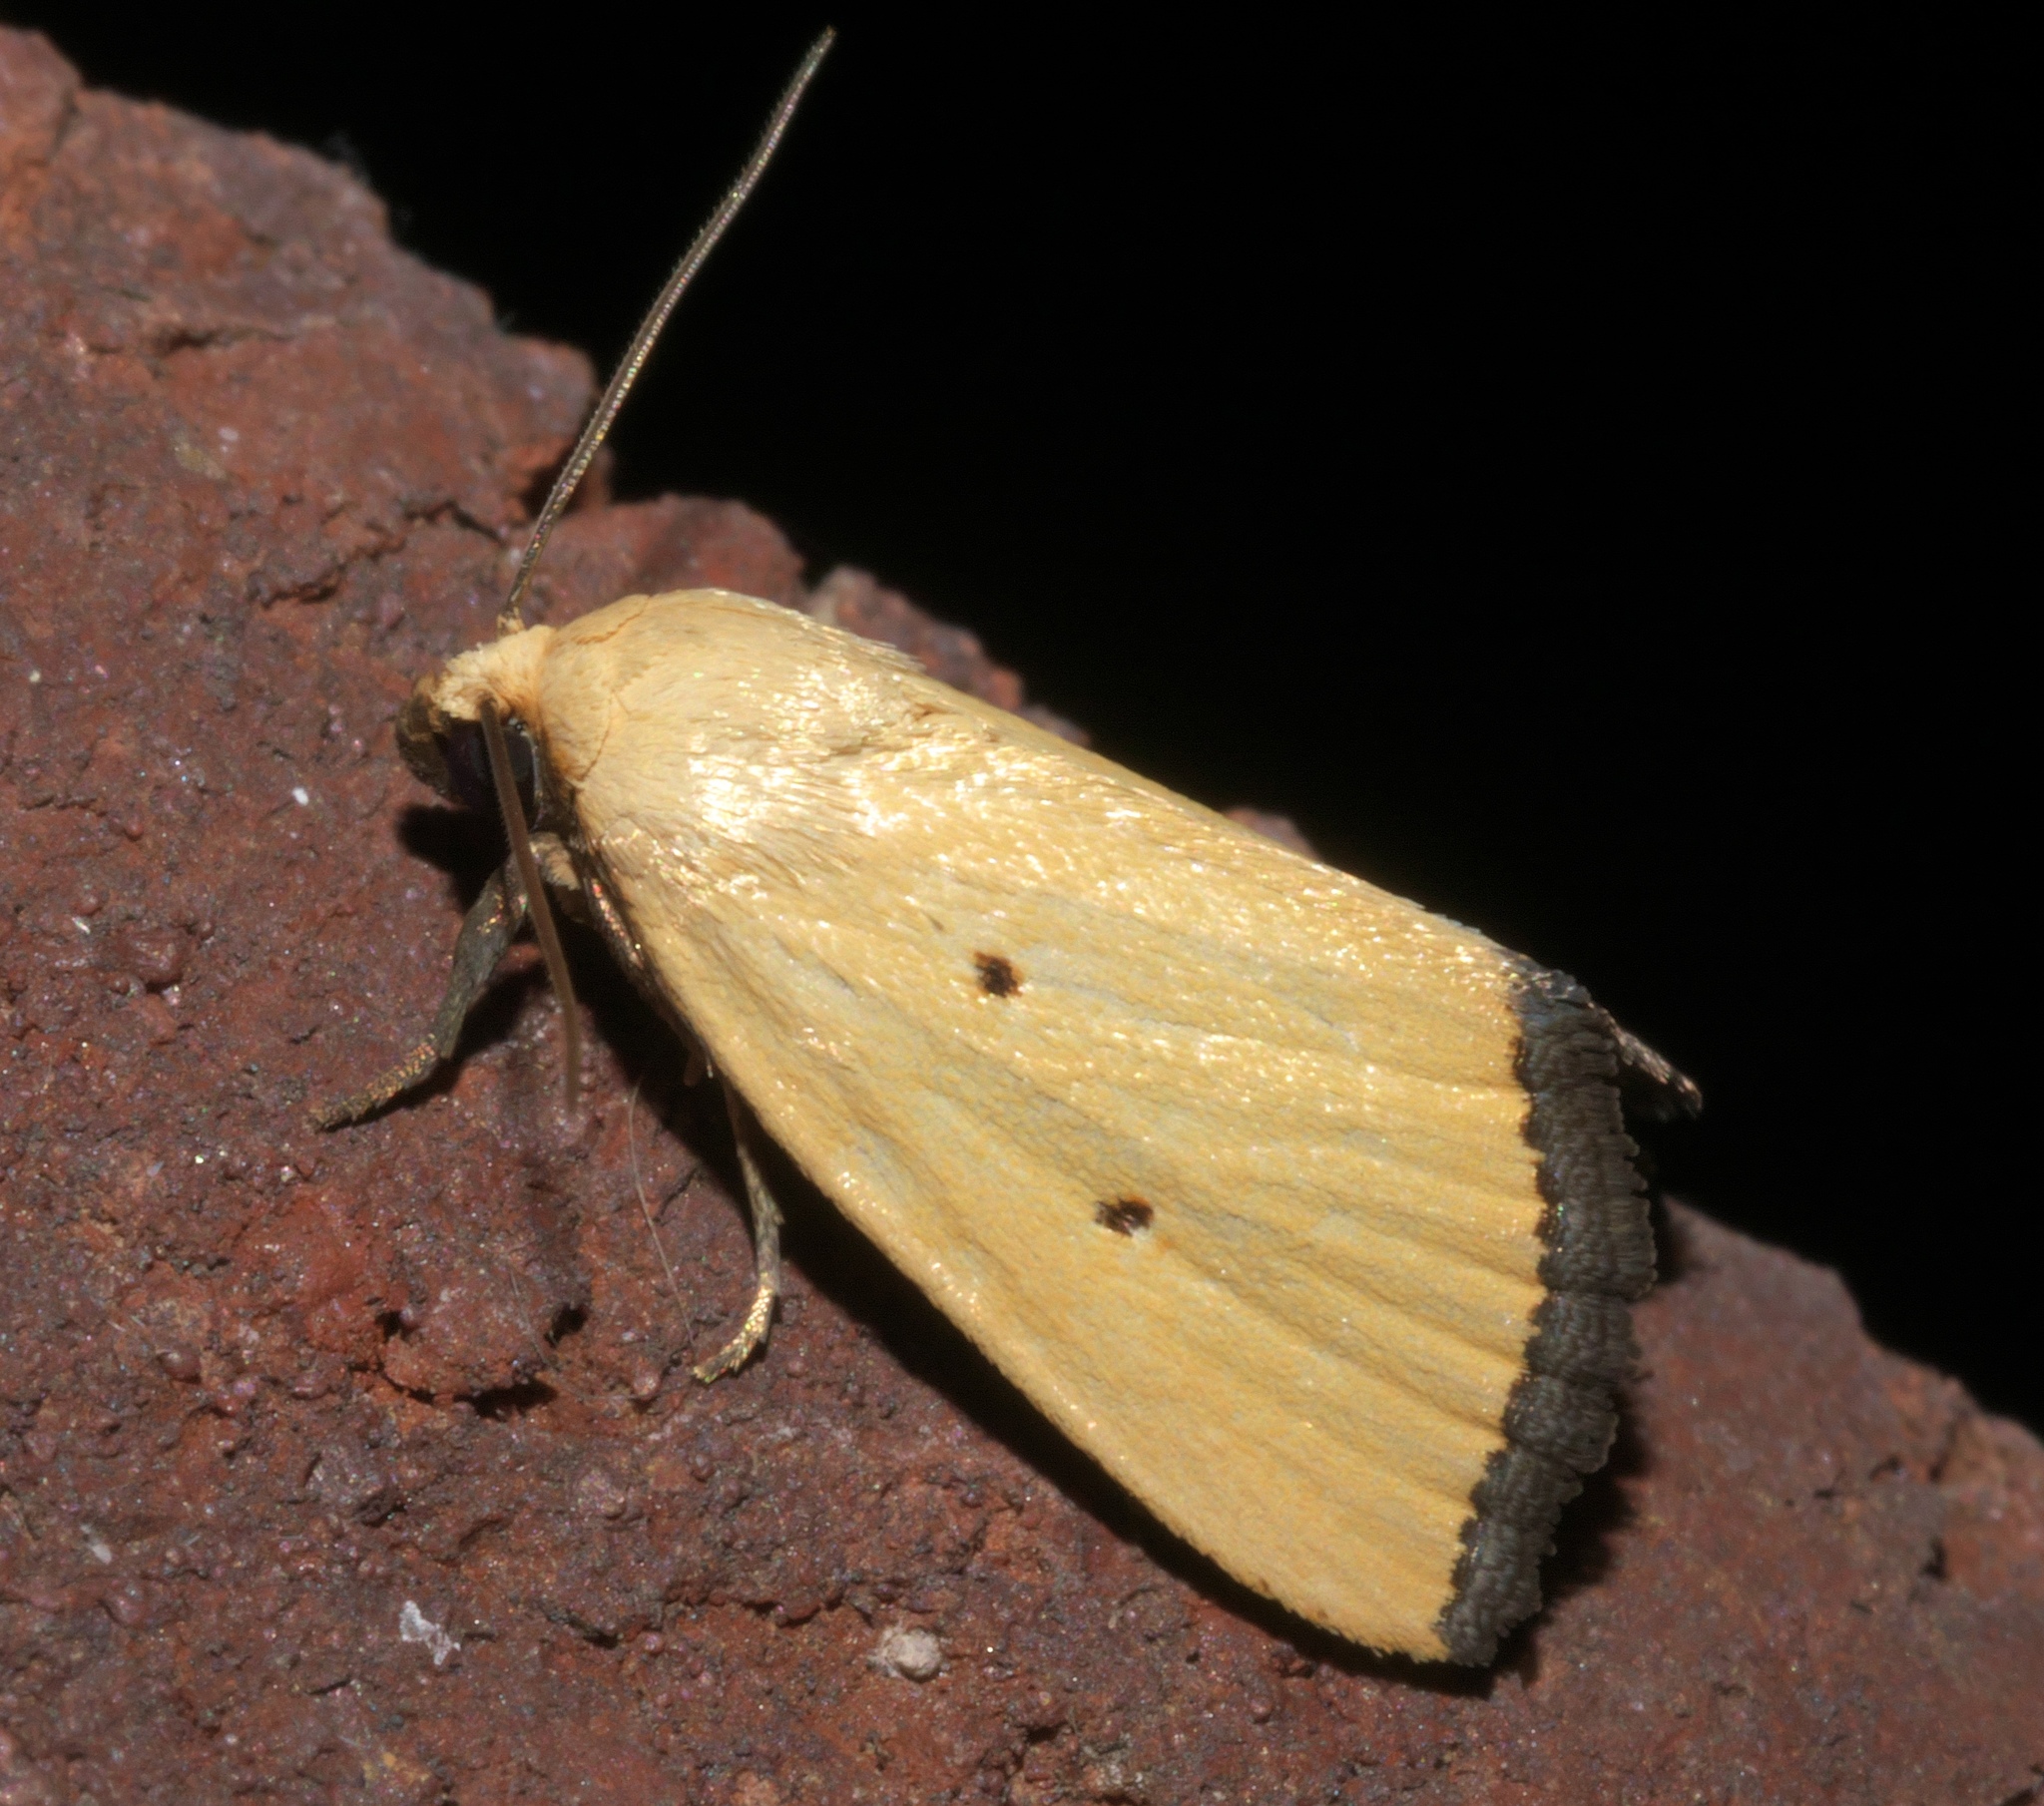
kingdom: Animalia
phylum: Arthropoda
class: Insecta
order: Lepidoptera
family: Noctuidae
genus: Marimatha
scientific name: Marimatha nigrofimbria
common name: Black-bordered lemon moth
